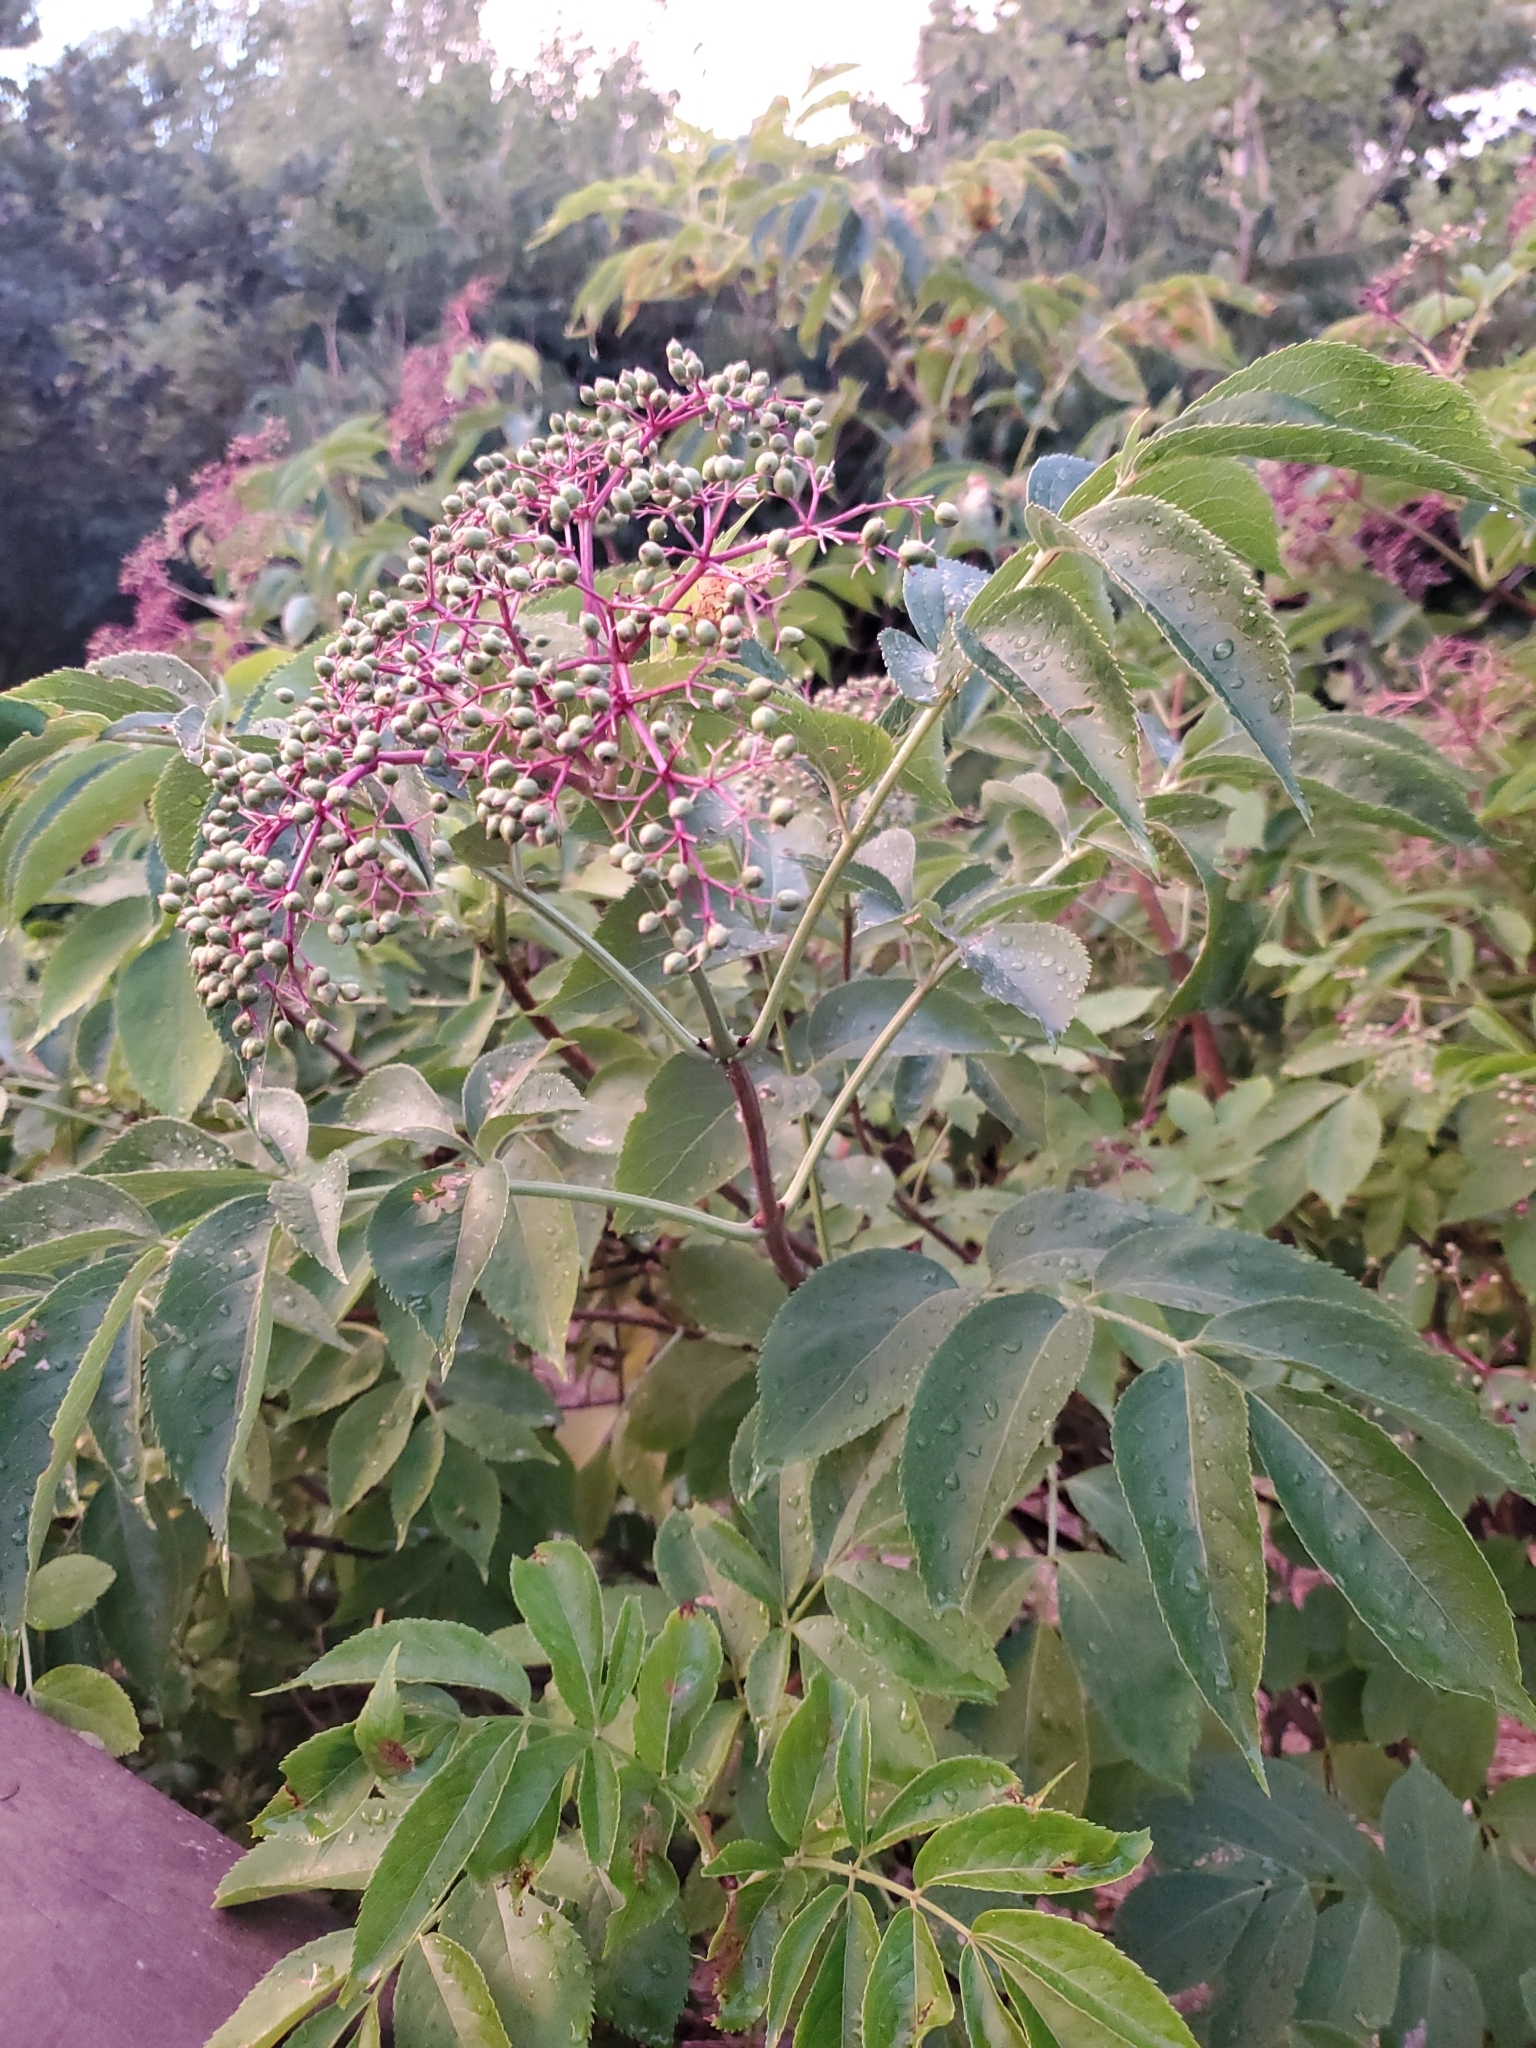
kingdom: Plantae
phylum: Tracheophyta
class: Magnoliopsida
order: Dipsacales
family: Viburnaceae
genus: Sambucus
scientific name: Sambucus canadensis
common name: American elder
